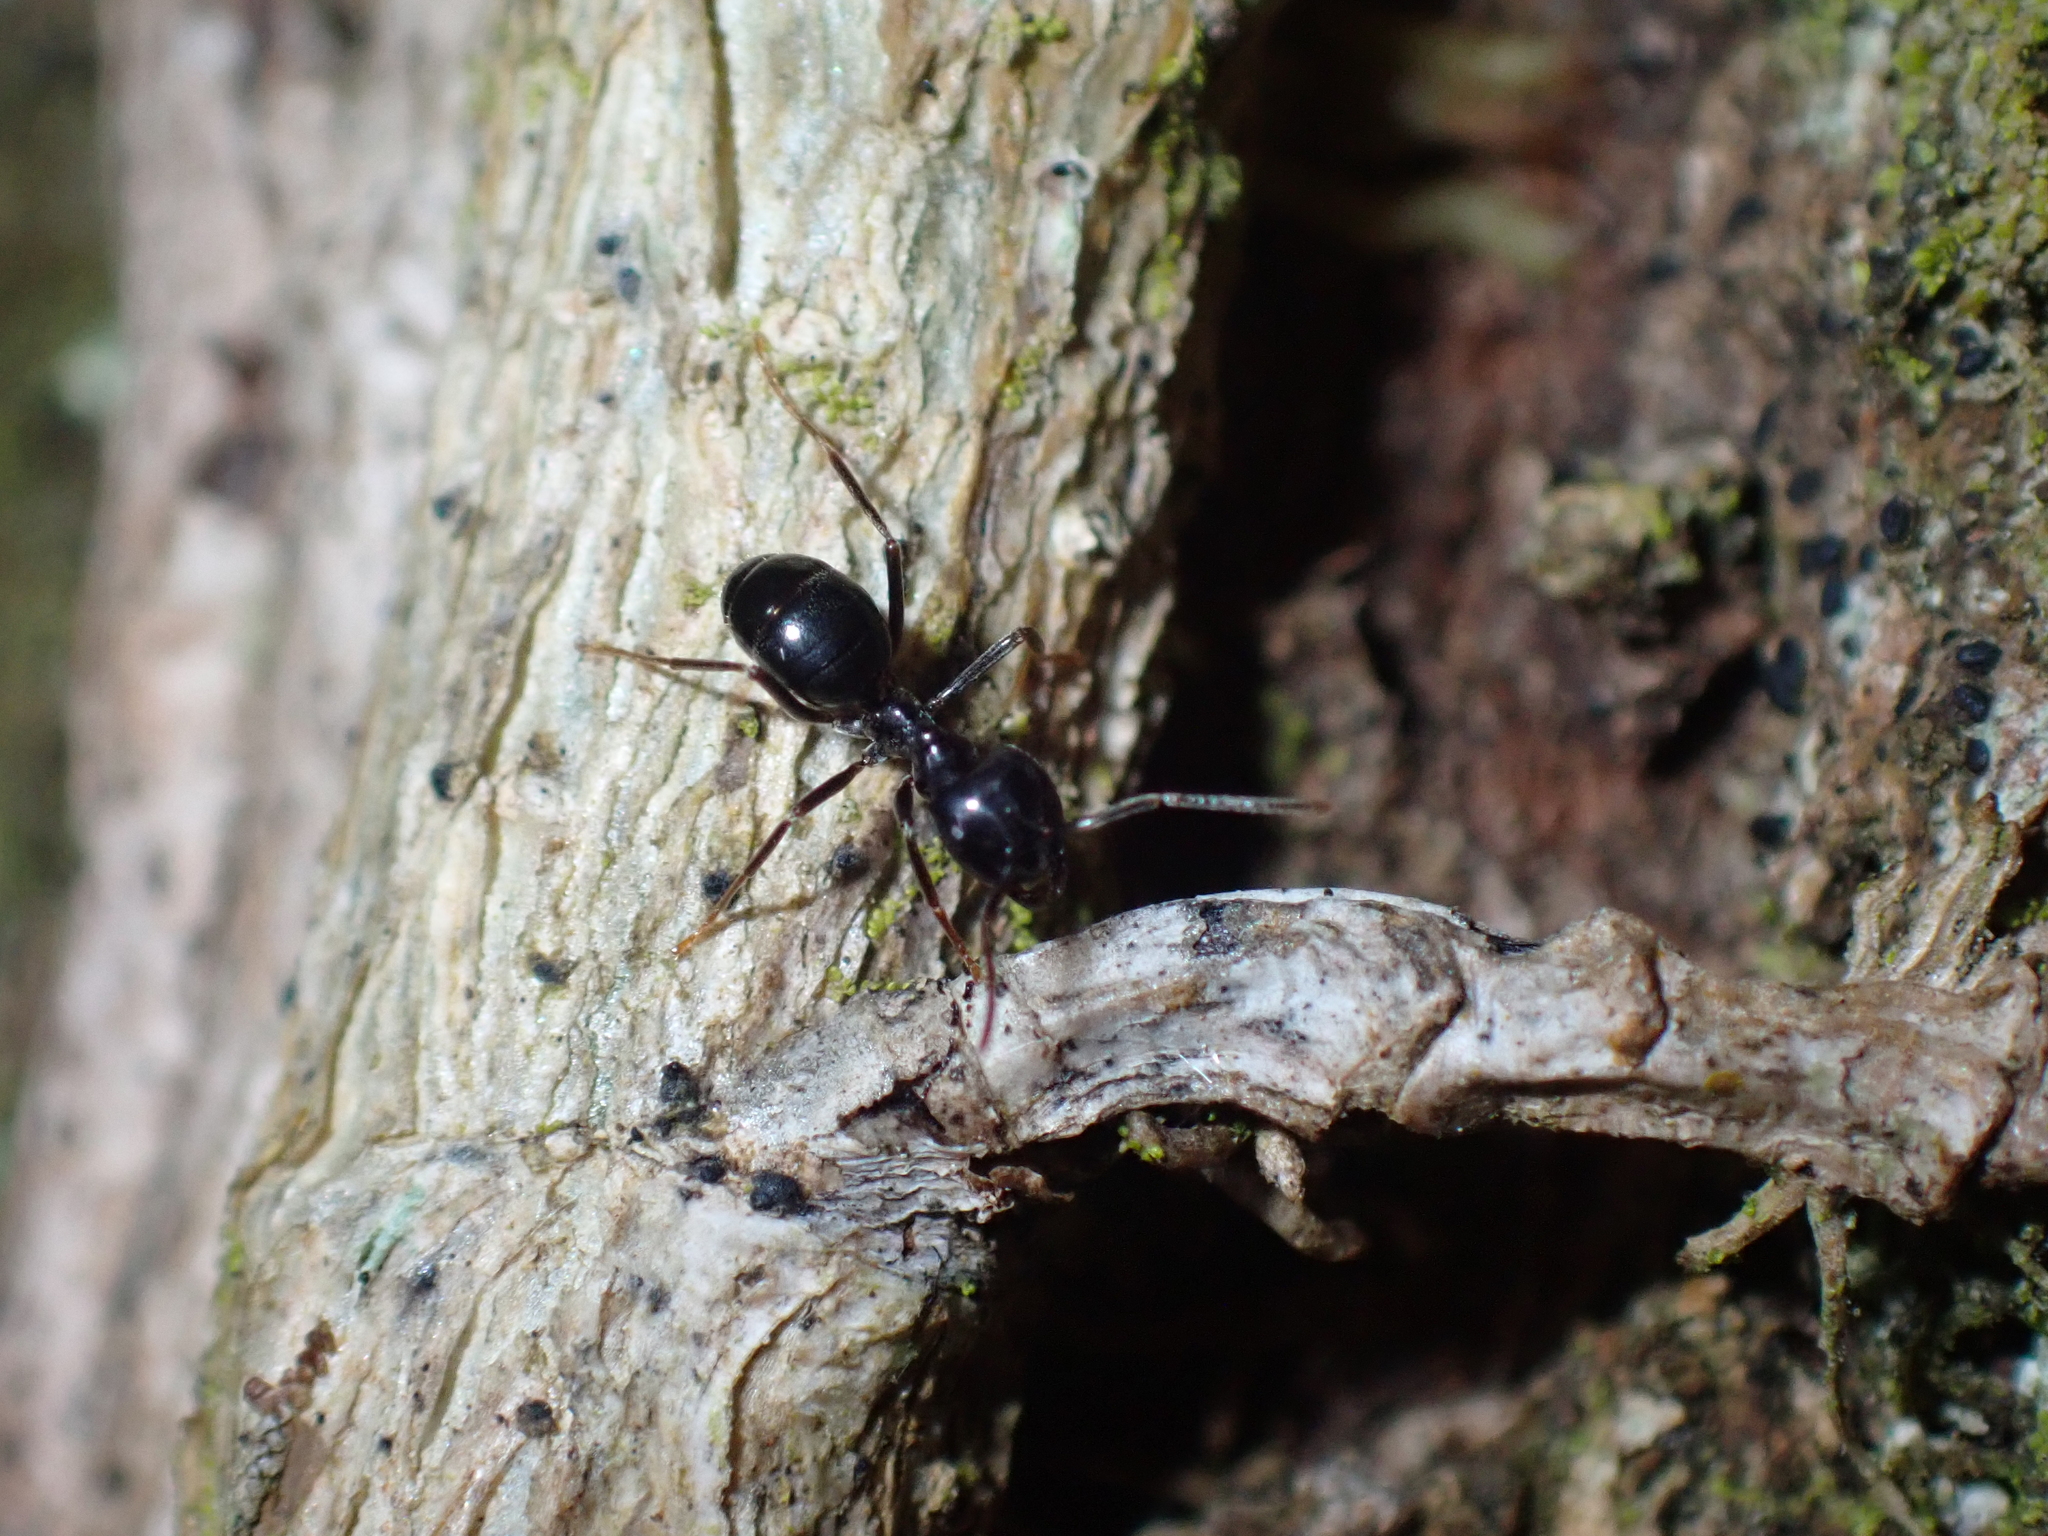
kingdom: Animalia
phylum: Arthropoda
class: Insecta
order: Hymenoptera
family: Formicidae
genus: Lasius
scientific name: Lasius fuliginosus
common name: Jet ant
